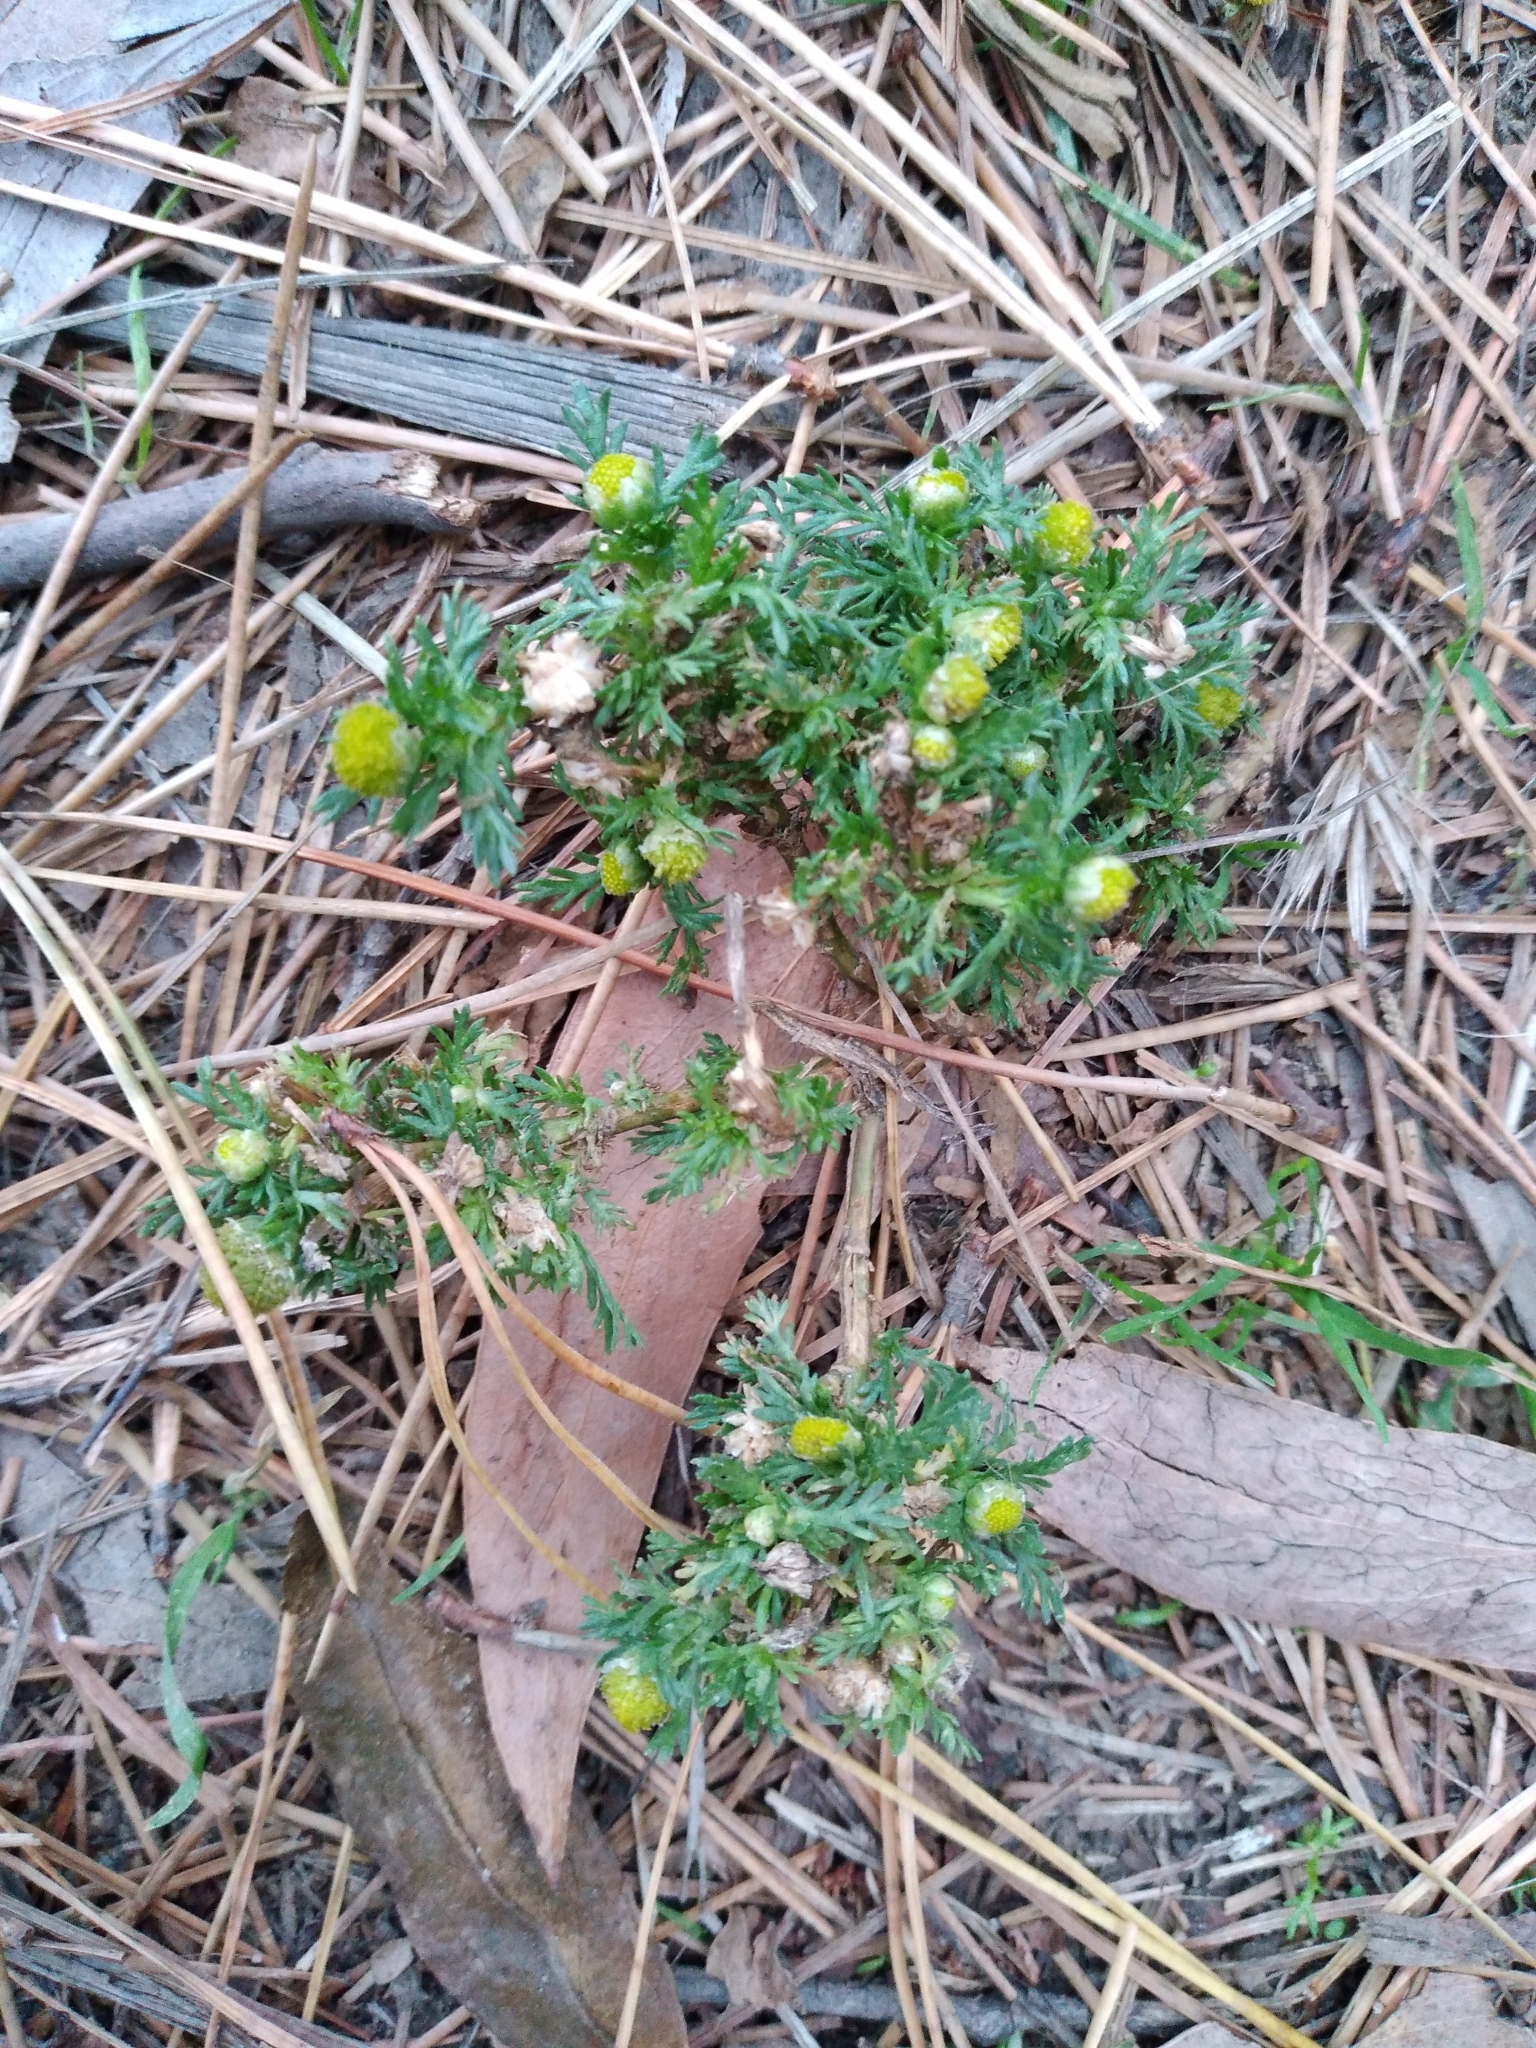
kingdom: Plantae
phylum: Tracheophyta
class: Magnoliopsida
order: Asterales
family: Asteraceae
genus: Matricaria
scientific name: Matricaria discoidea
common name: Disc mayweed
